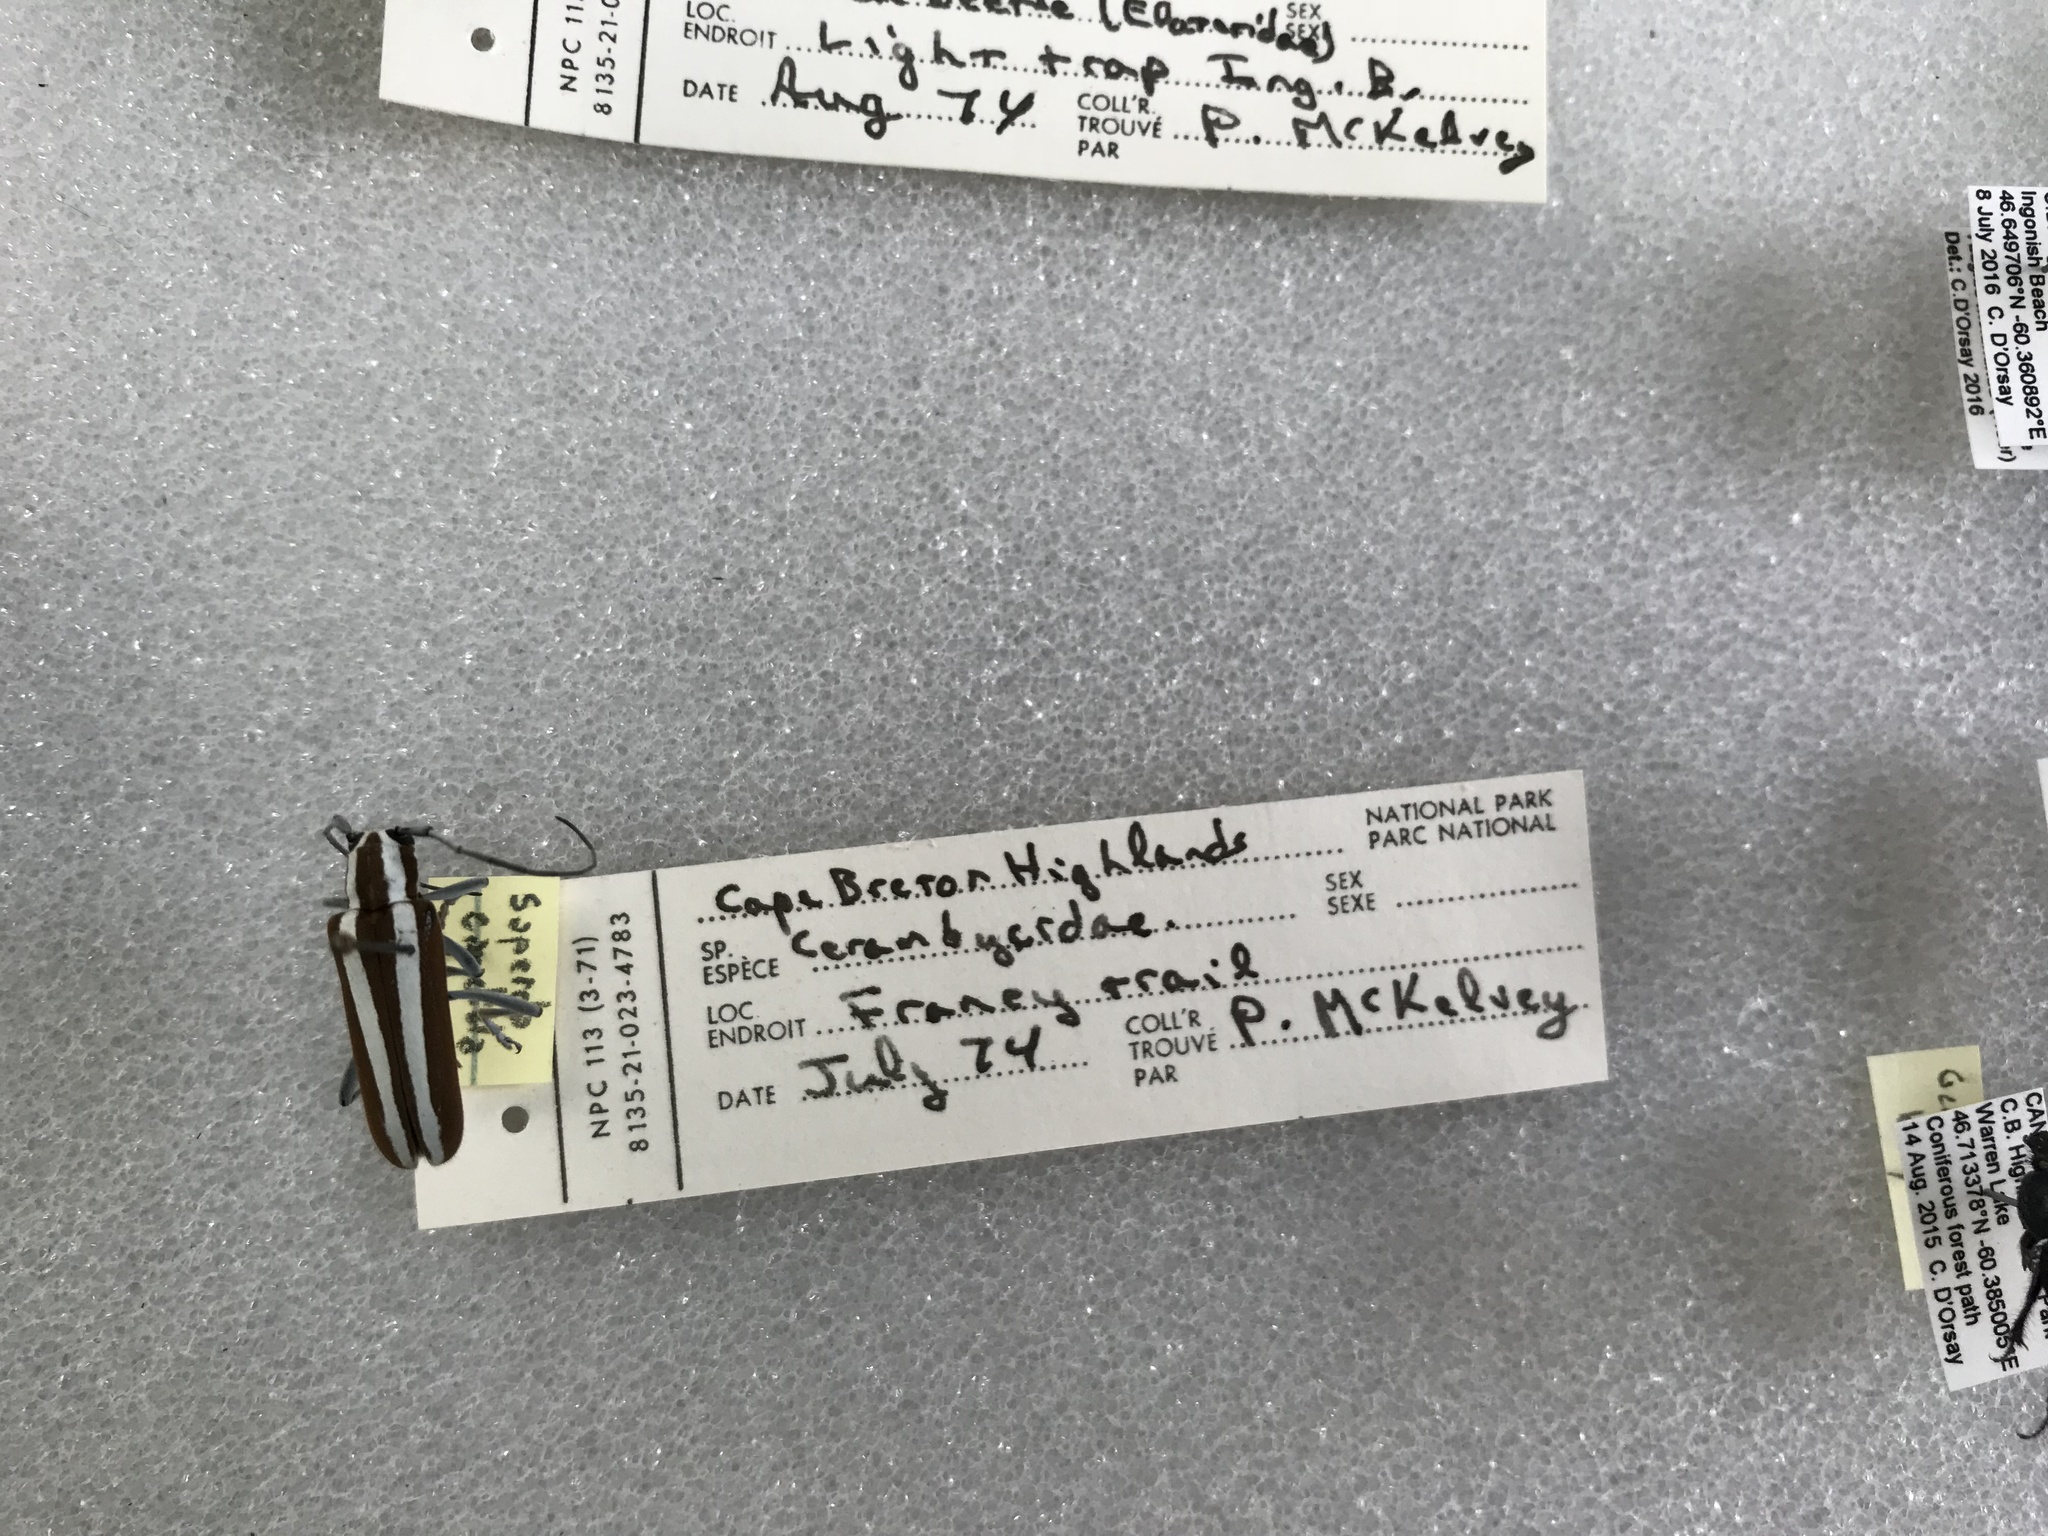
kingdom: Animalia
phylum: Arthropoda
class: Insecta
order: Coleoptera
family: Cerambycidae
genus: Saperda
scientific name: Saperda candida
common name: Round-headed borer
